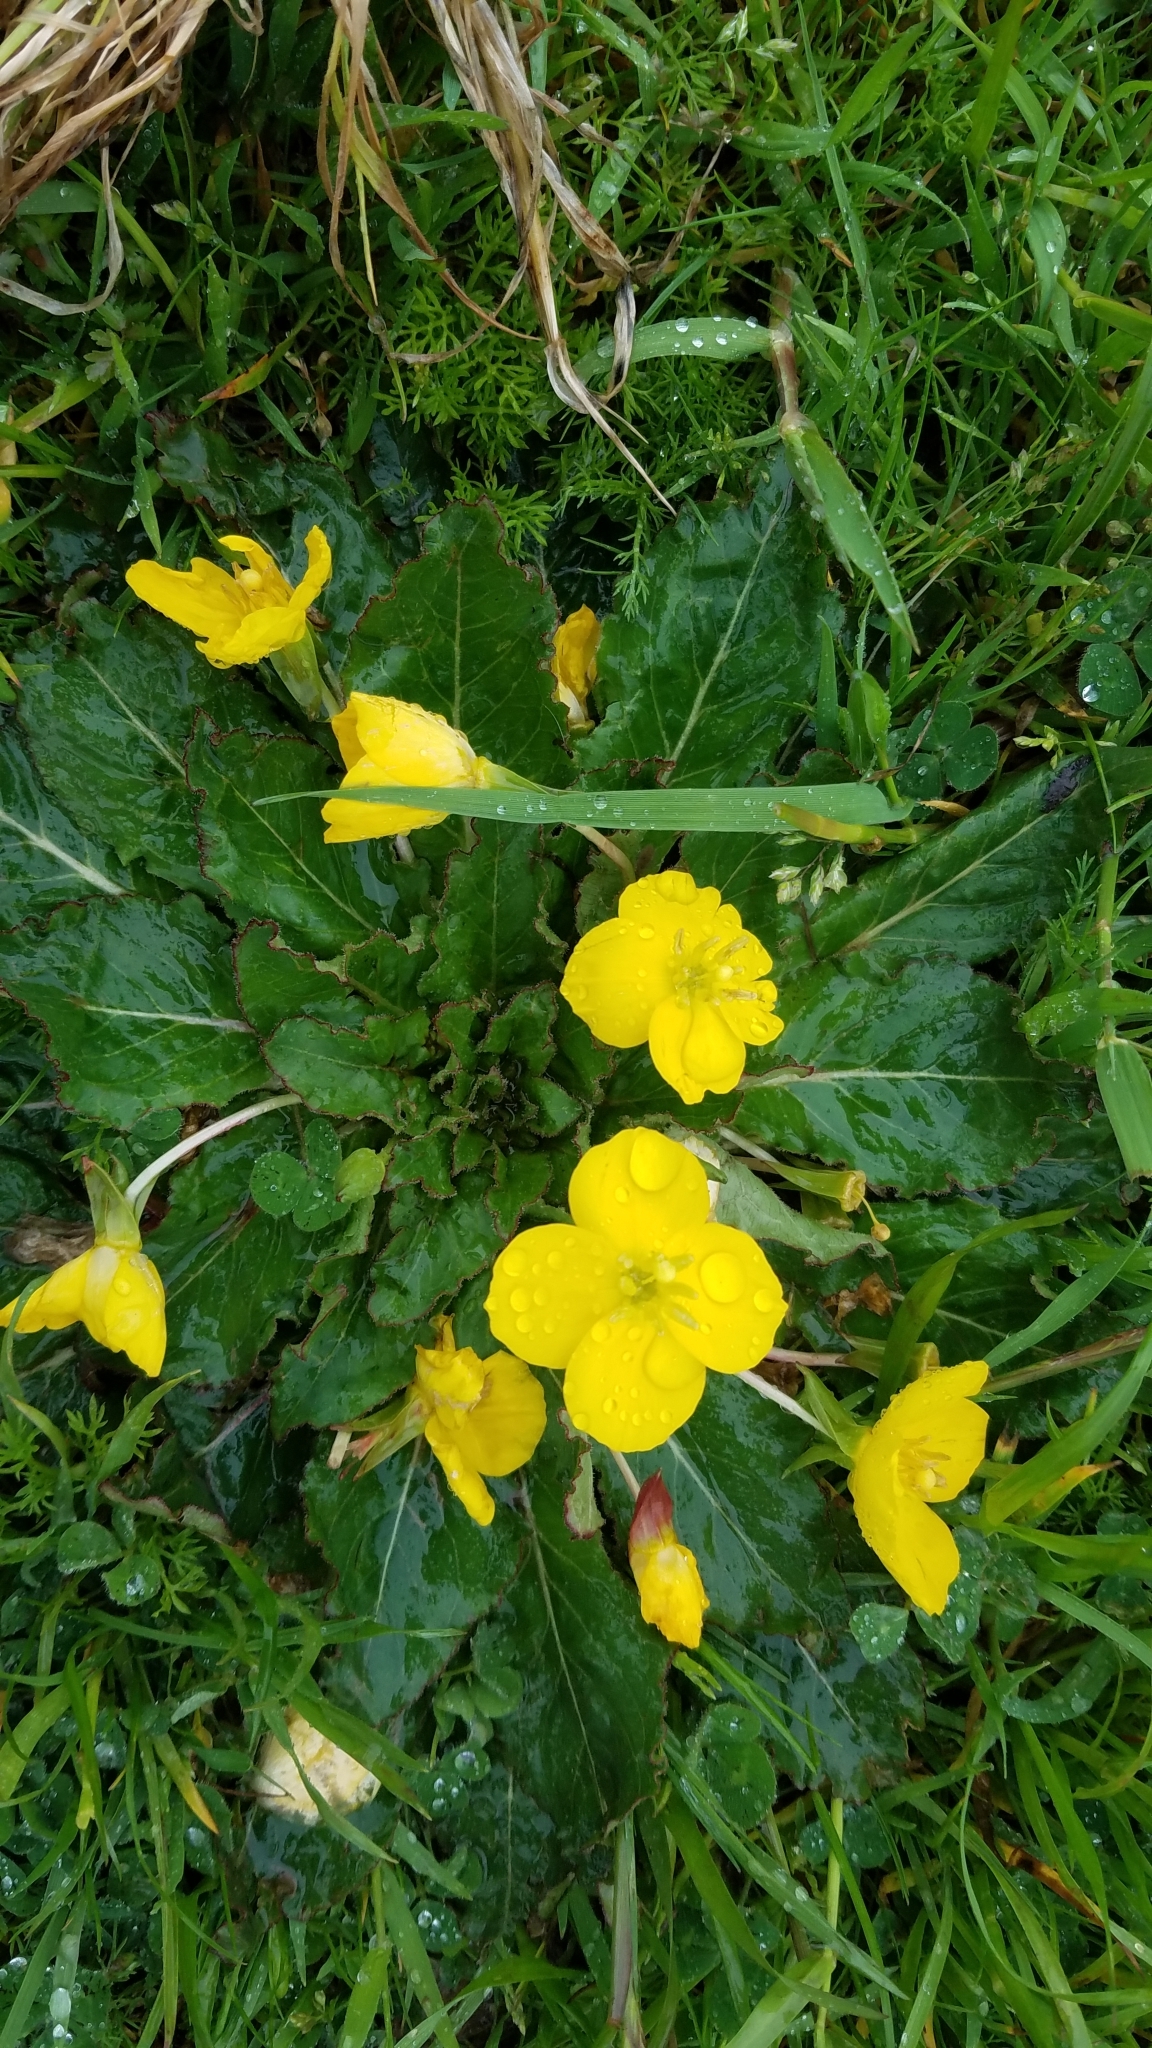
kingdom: Plantae
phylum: Tracheophyta
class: Magnoliopsida
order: Myrtales
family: Onagraceae
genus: Taraxia
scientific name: Taraxia ovata
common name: Goldeneggs
